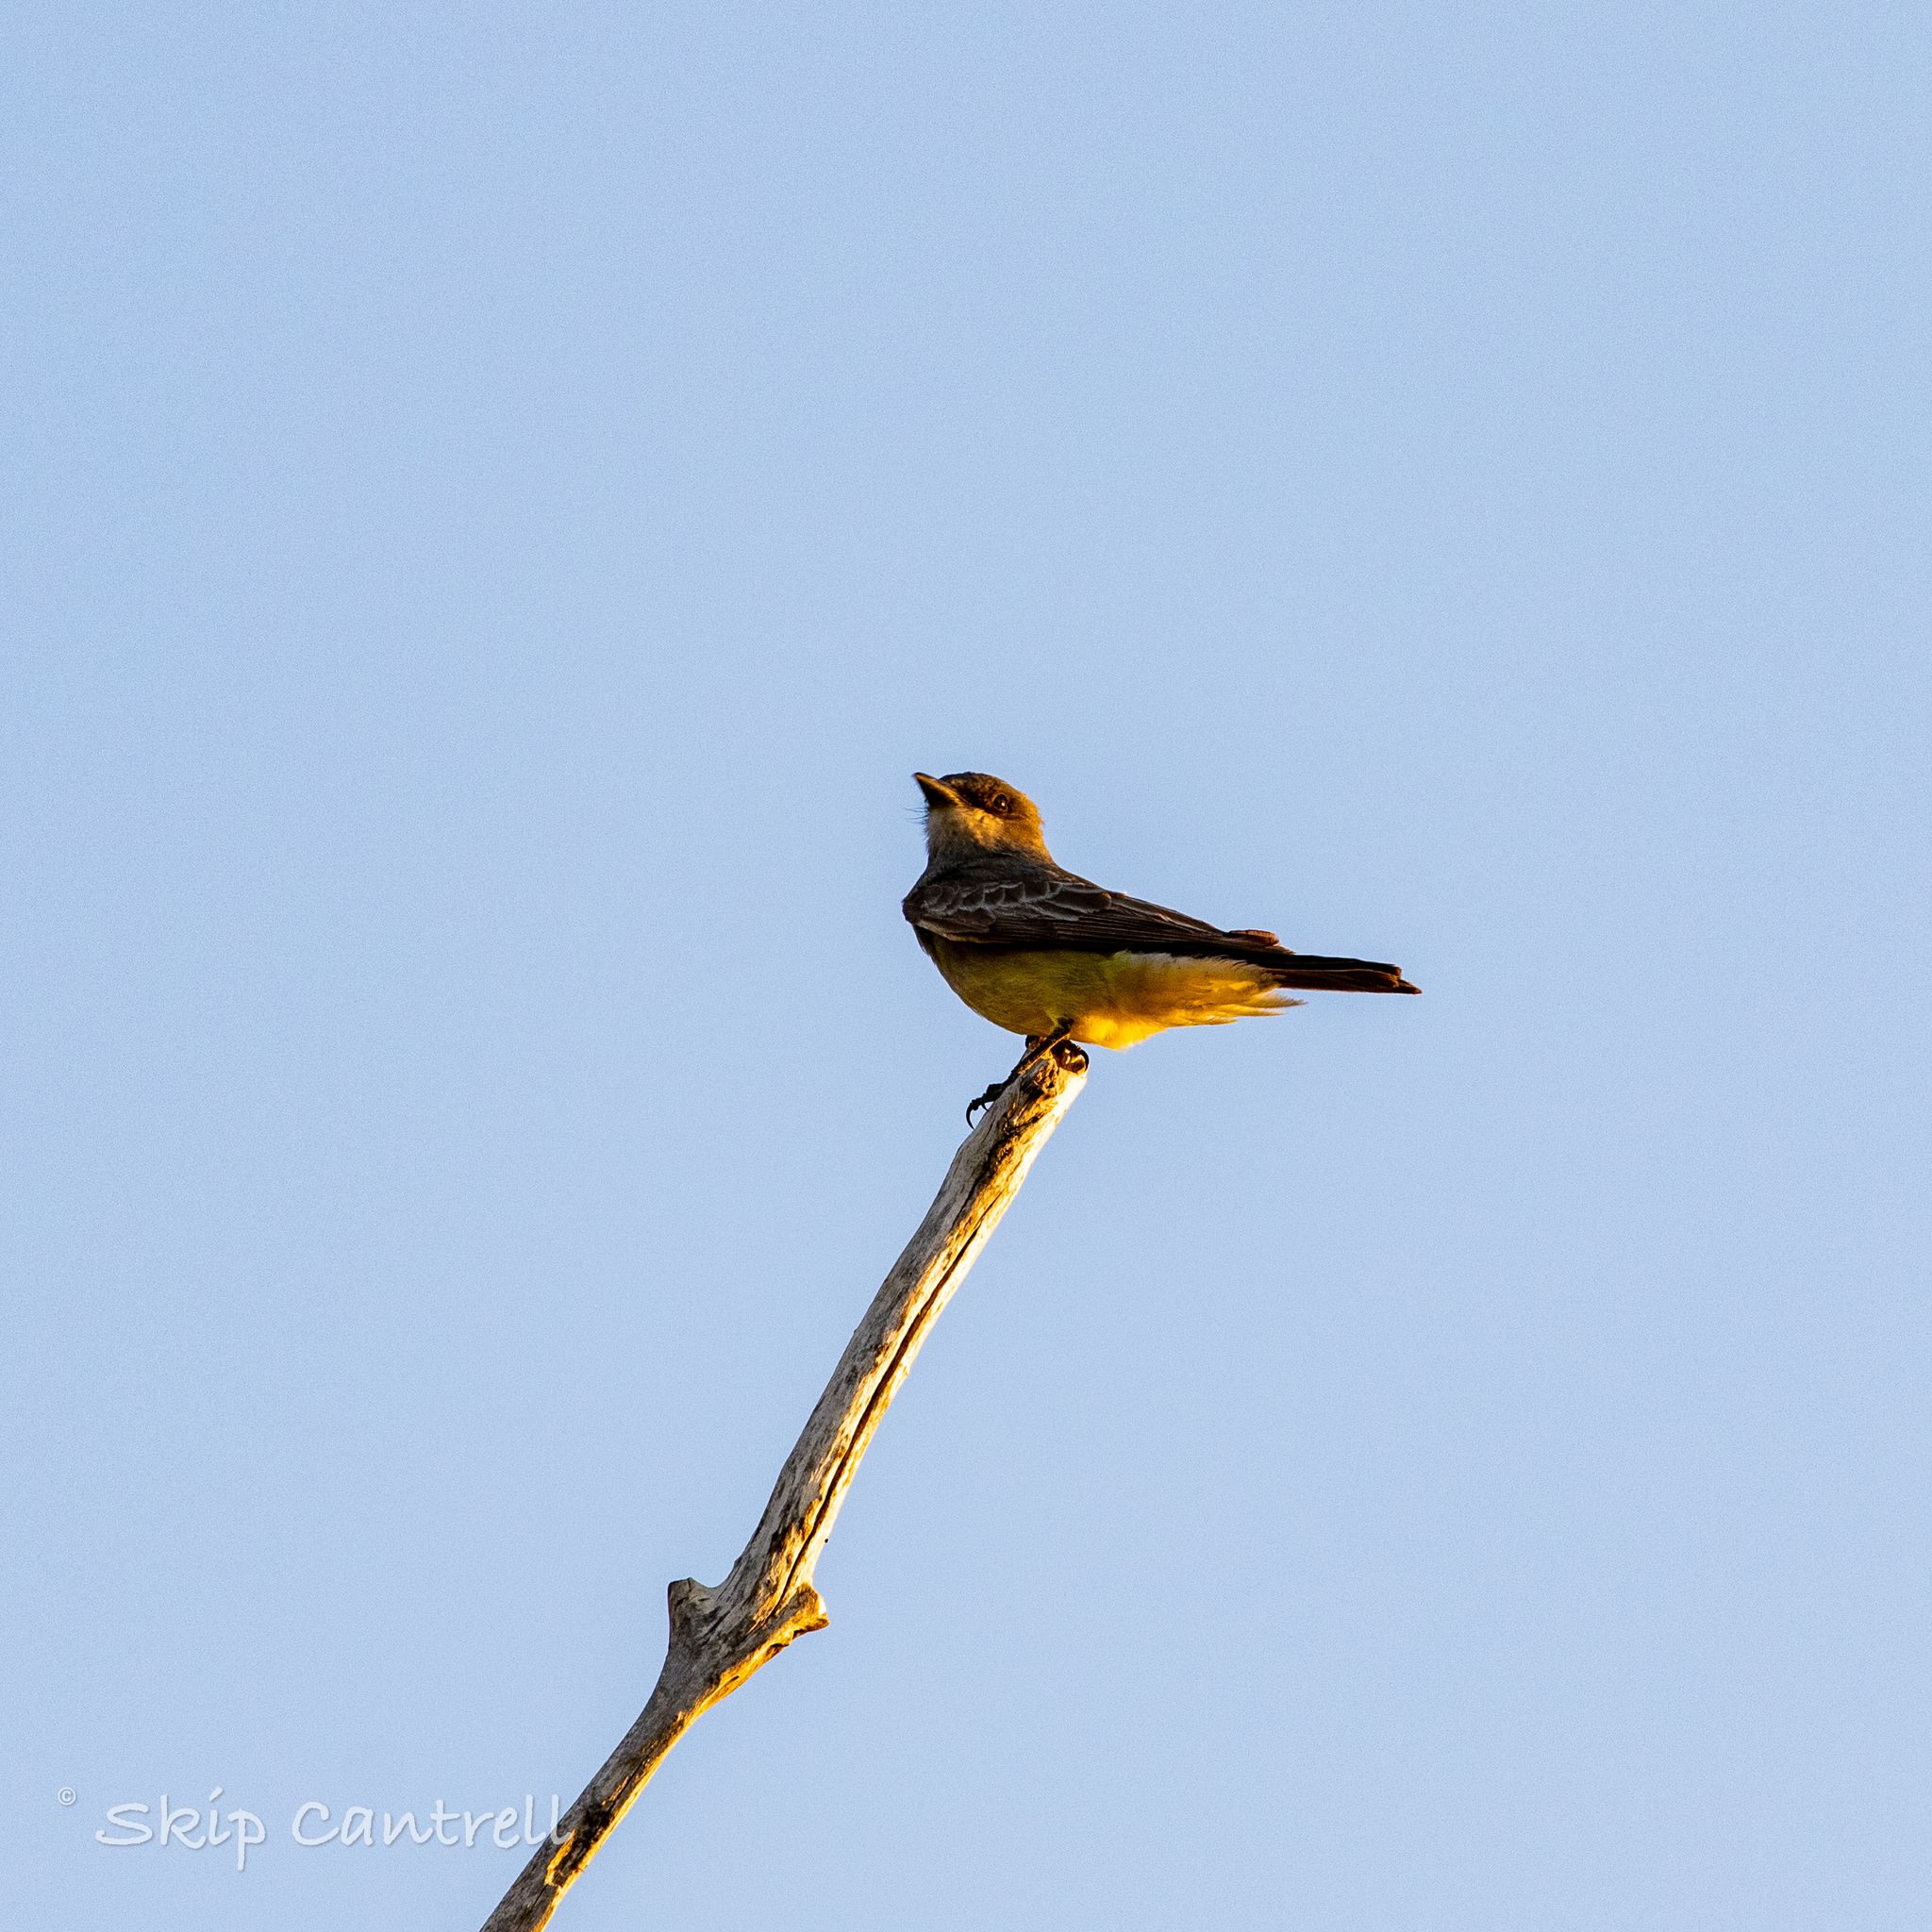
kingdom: Animalia
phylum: Chordata
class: Aves
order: Passeriformes
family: Tyrannidae
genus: Tyrannus
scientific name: Tyrannus vociferans
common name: Cassin's kingbird
